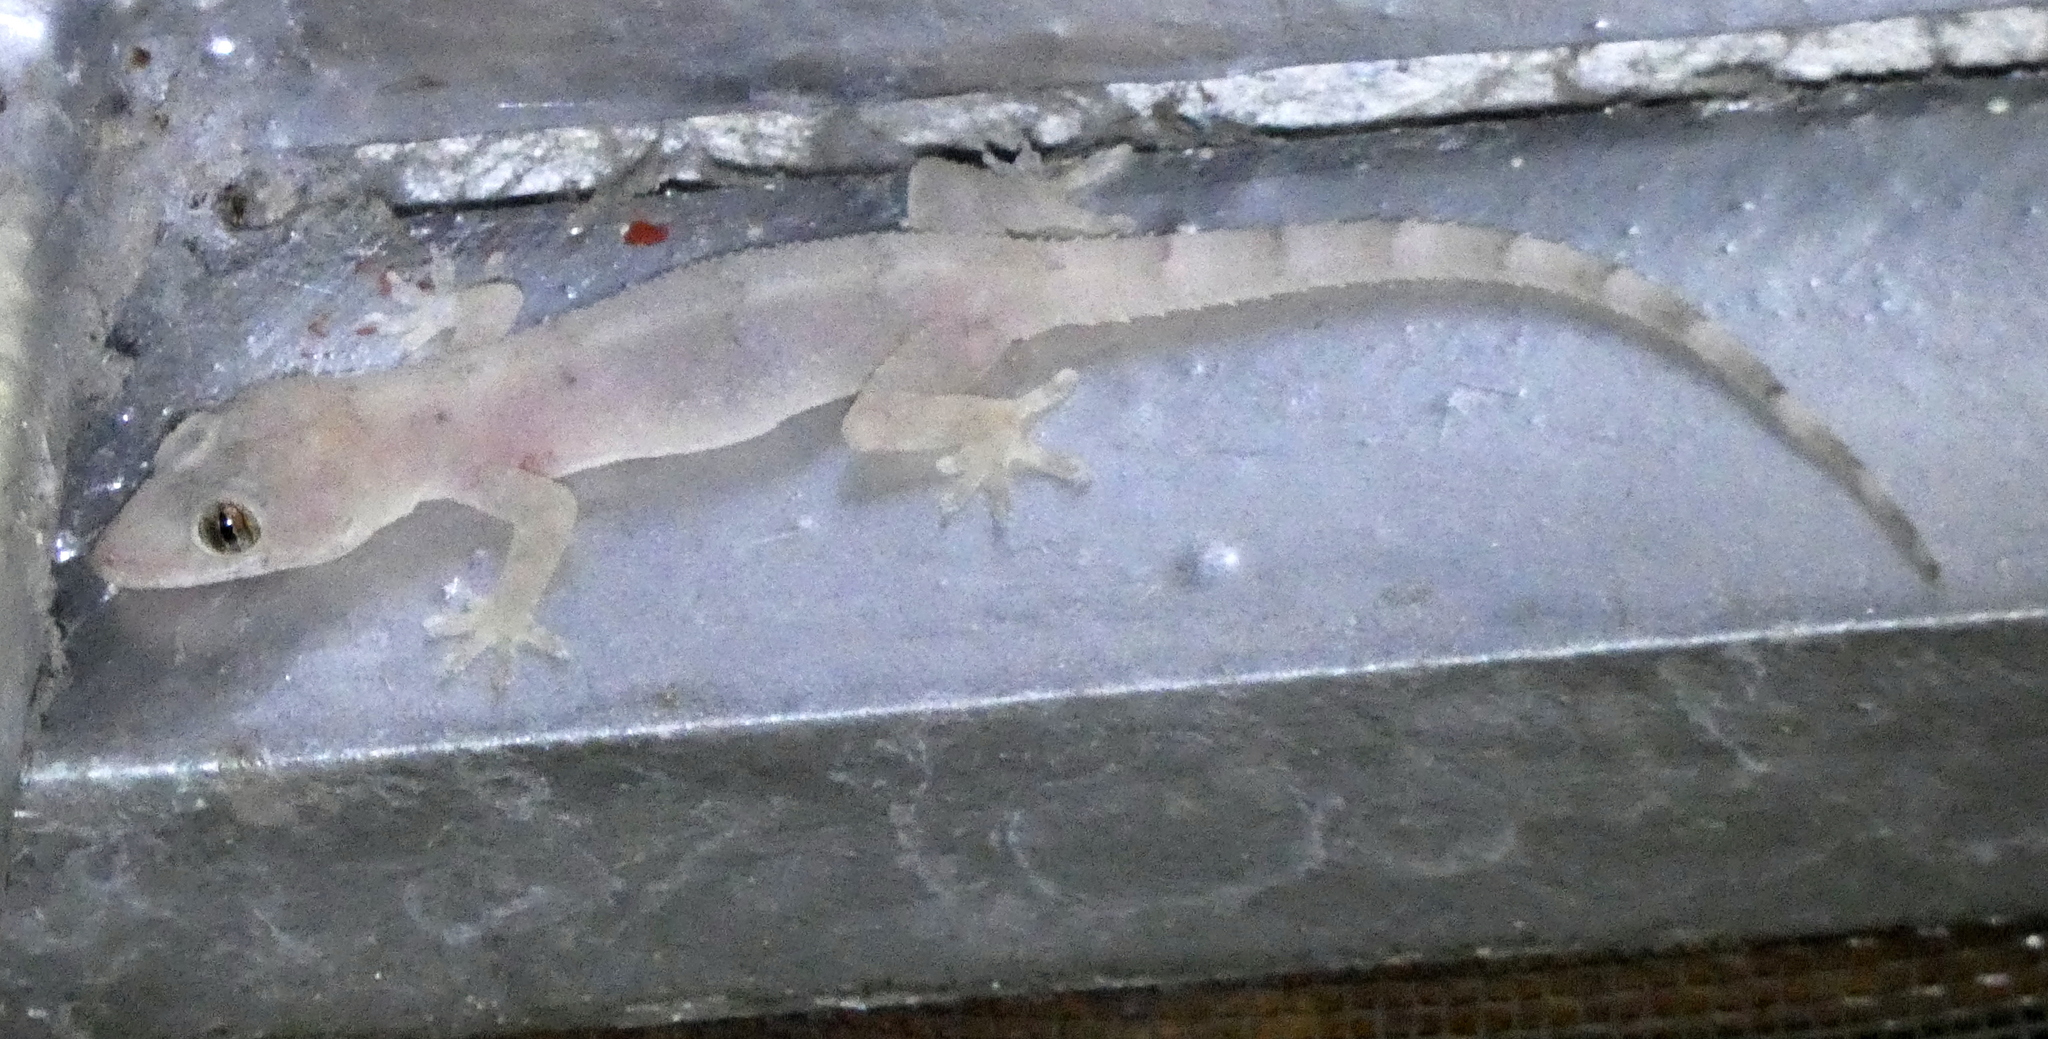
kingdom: Animalia
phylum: Chordata
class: Squamata
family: Gekkonidae
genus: Hemidactylus
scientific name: Hemidactylus mabouia
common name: House gecko
